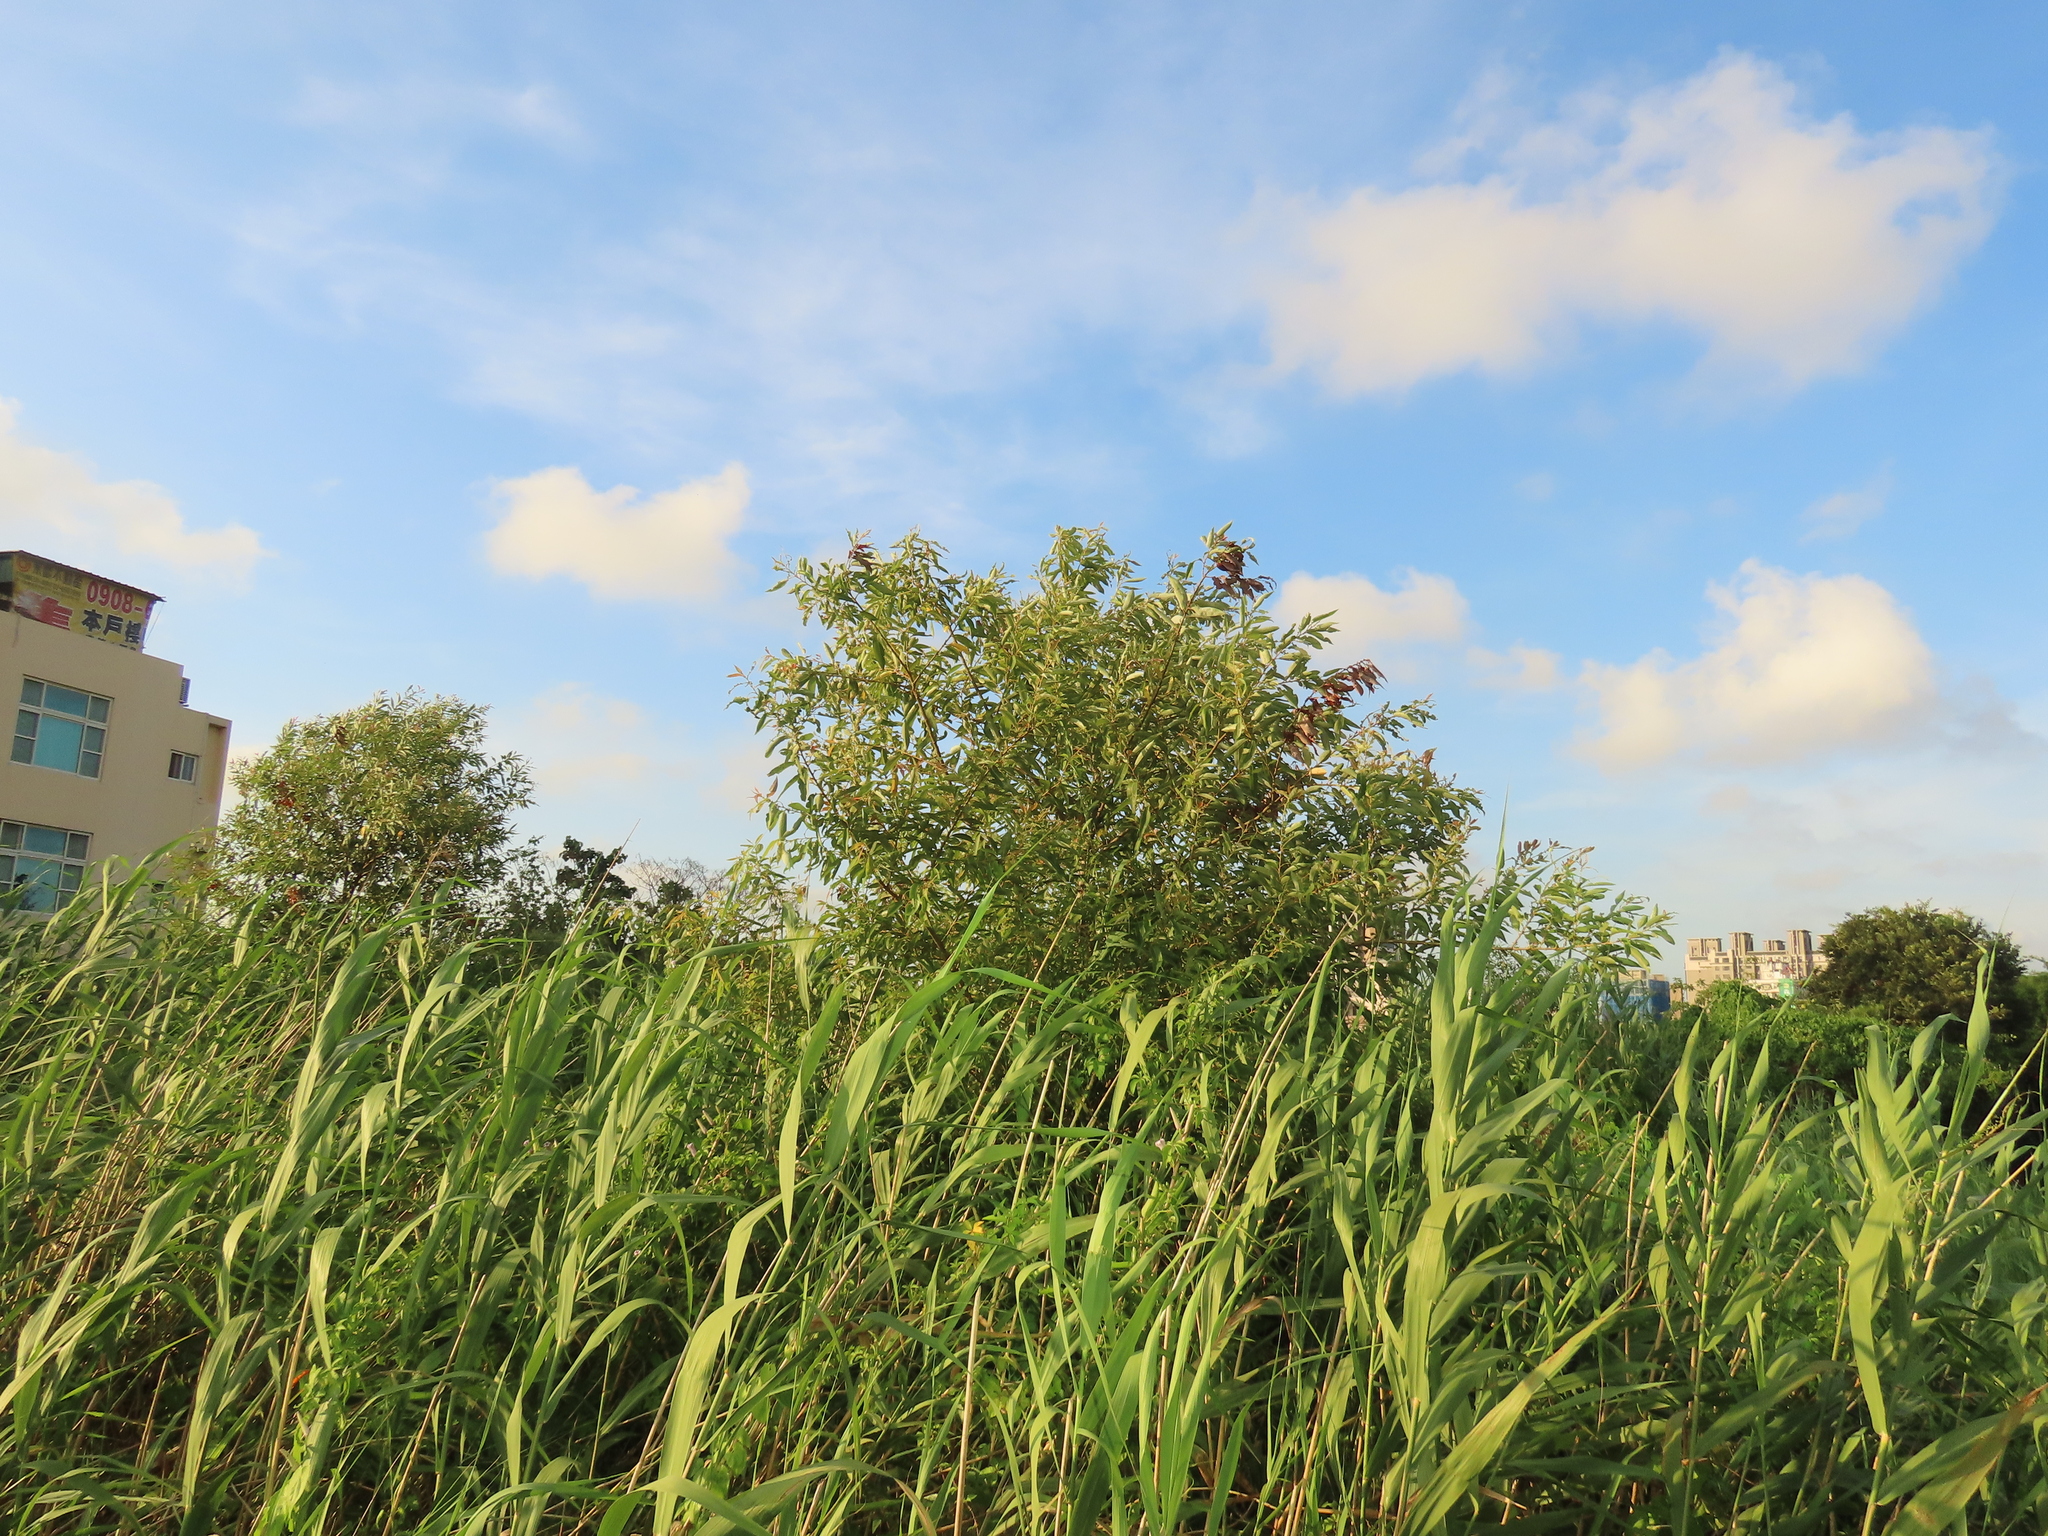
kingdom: Plantae
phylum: Tracheophyta
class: Magnoliopsida
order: Malpighiales
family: Salicaceae
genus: Salix
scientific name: Salix mesnyi
